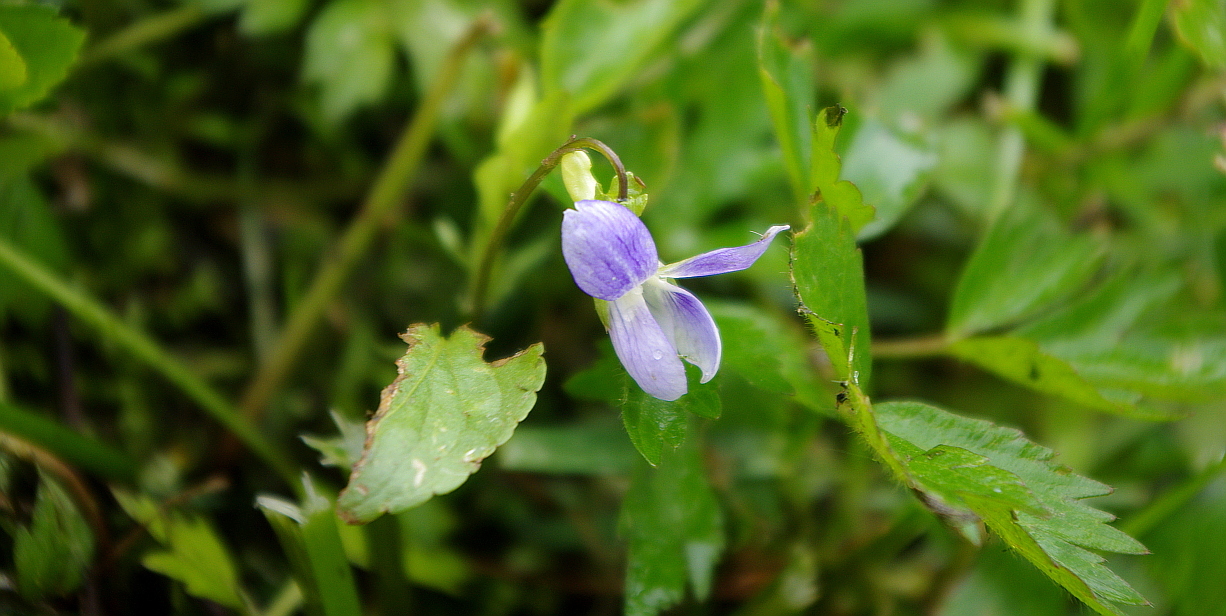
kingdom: Plantae
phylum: Tracheophyta
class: Magnoliopsida
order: Malpighiales
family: Violaceae
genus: Viola
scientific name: Viola canina
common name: Heath dog-violet
